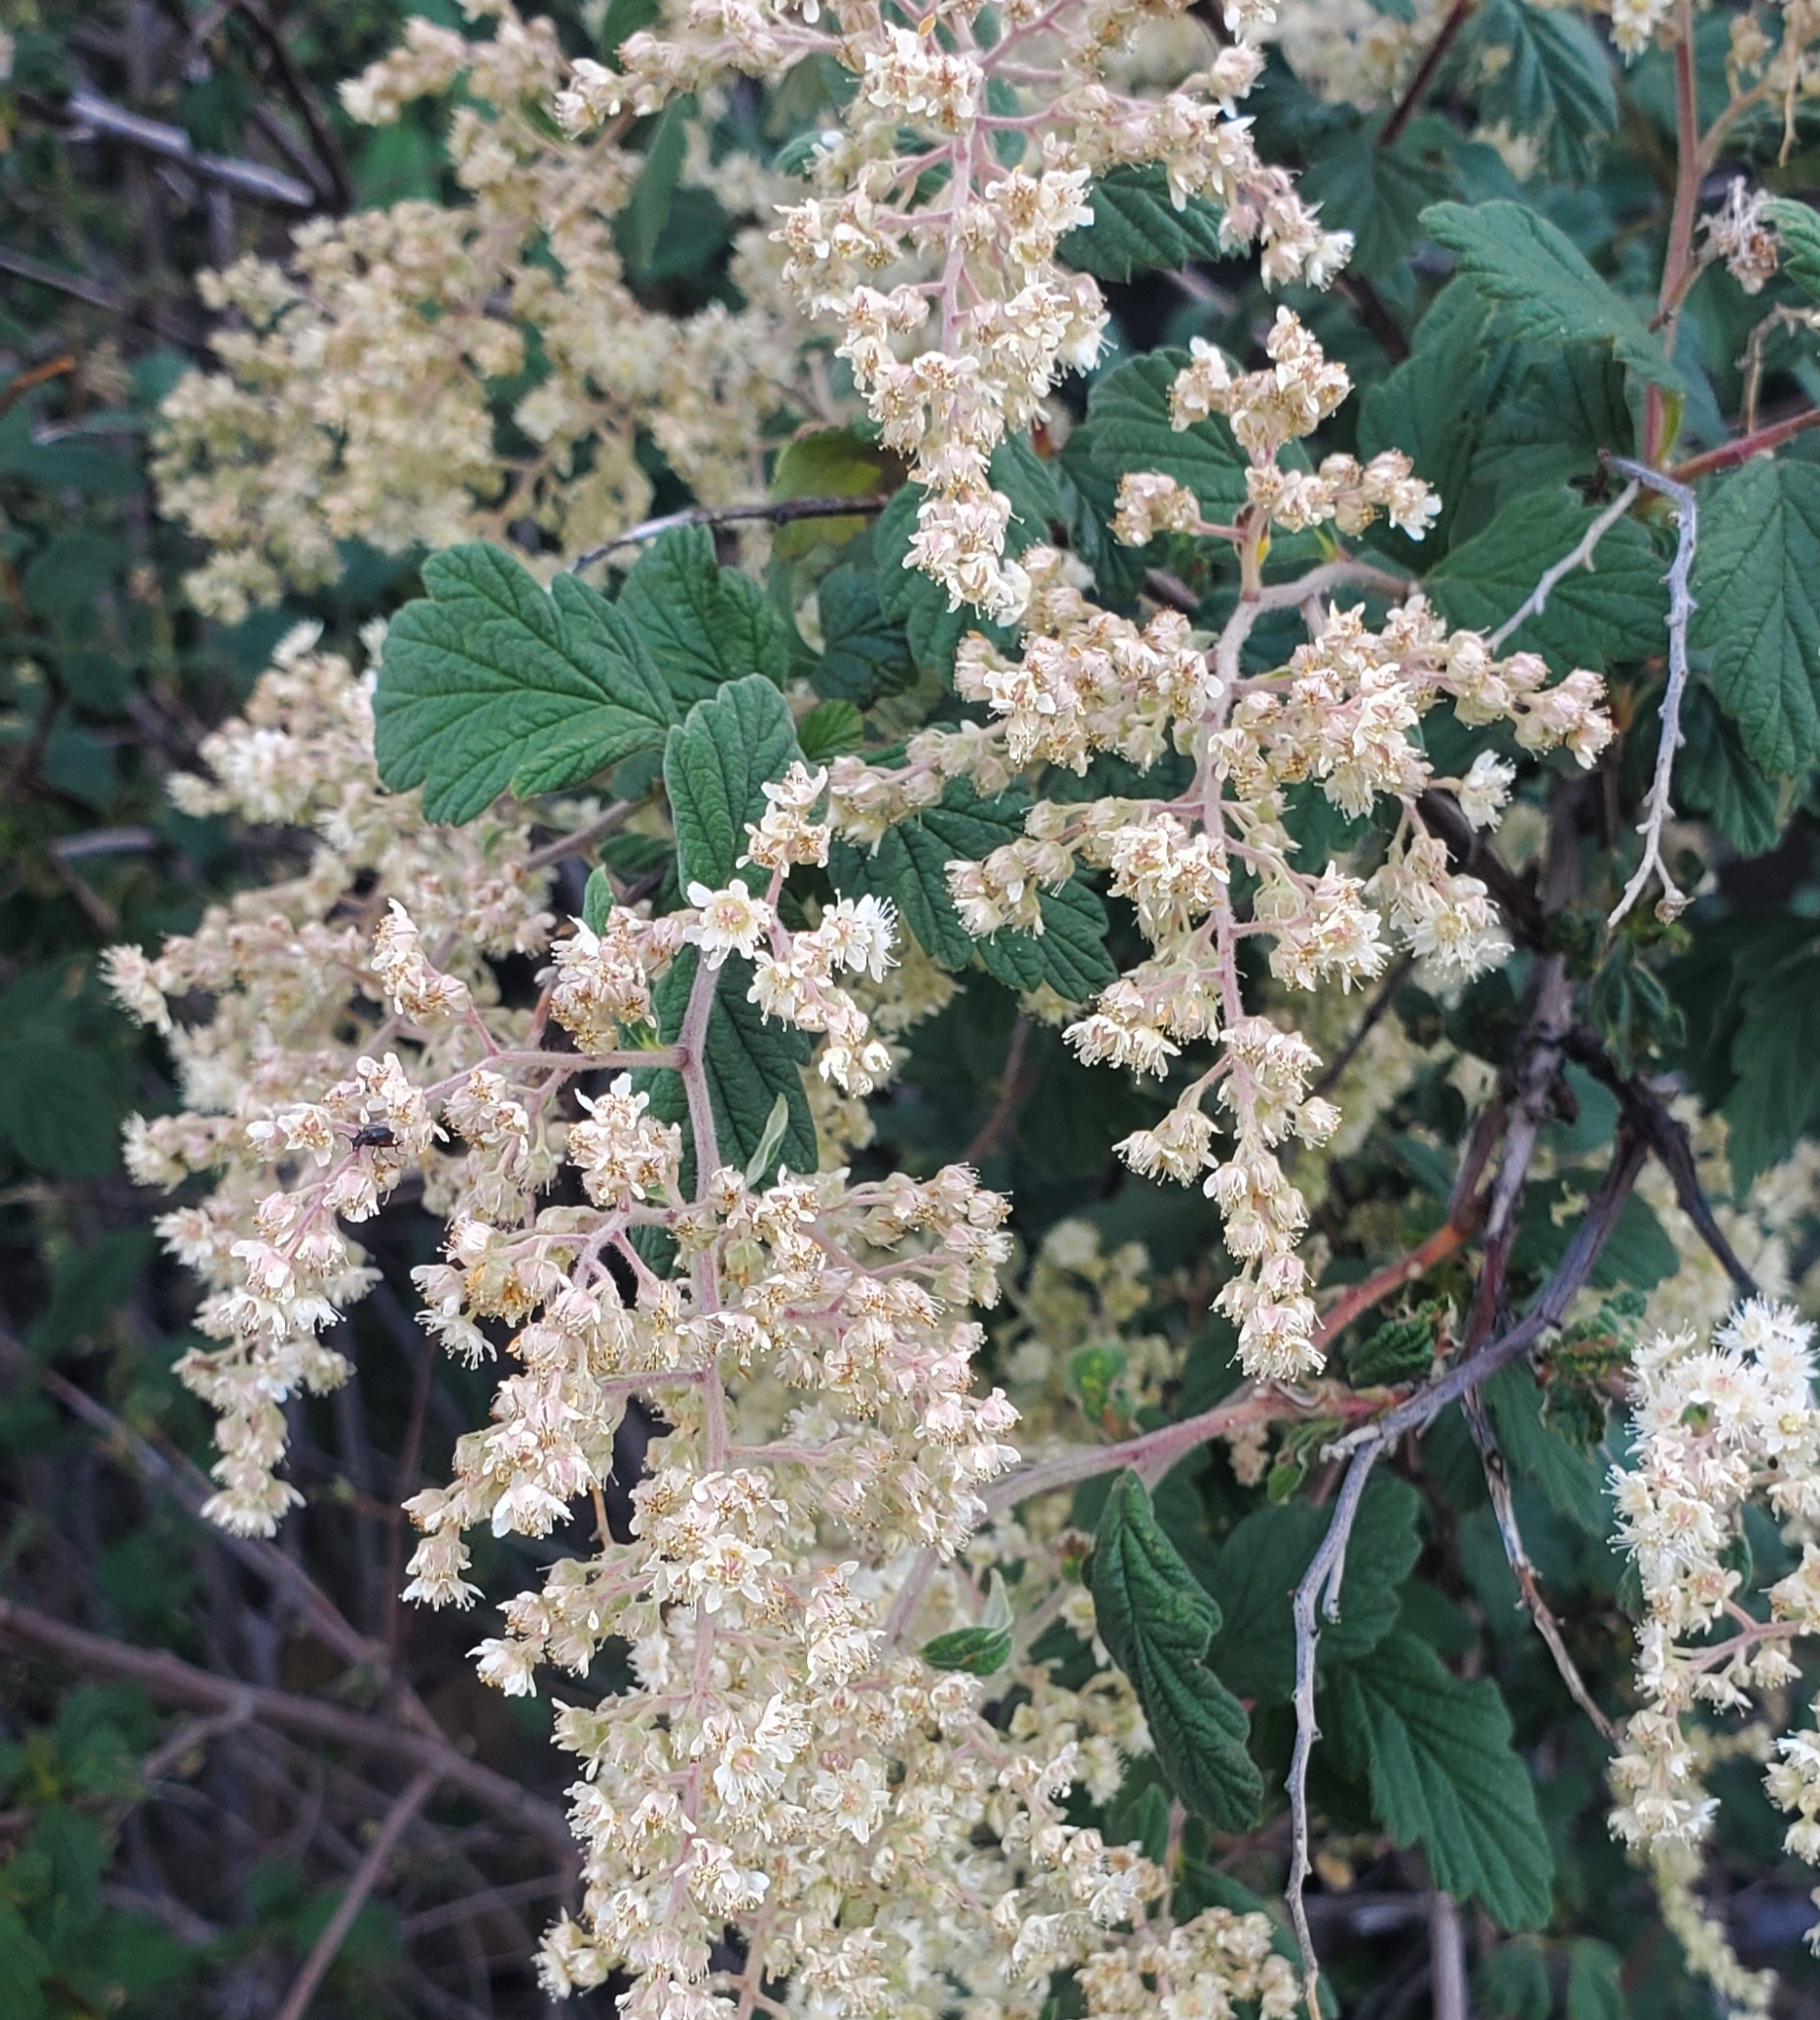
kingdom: Plantae
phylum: Tracheophyta
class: Magnoliopsida
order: Rosales
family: Rosaceae
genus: Holodiscus
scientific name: Holodiscus discolor
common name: Oceanspray
